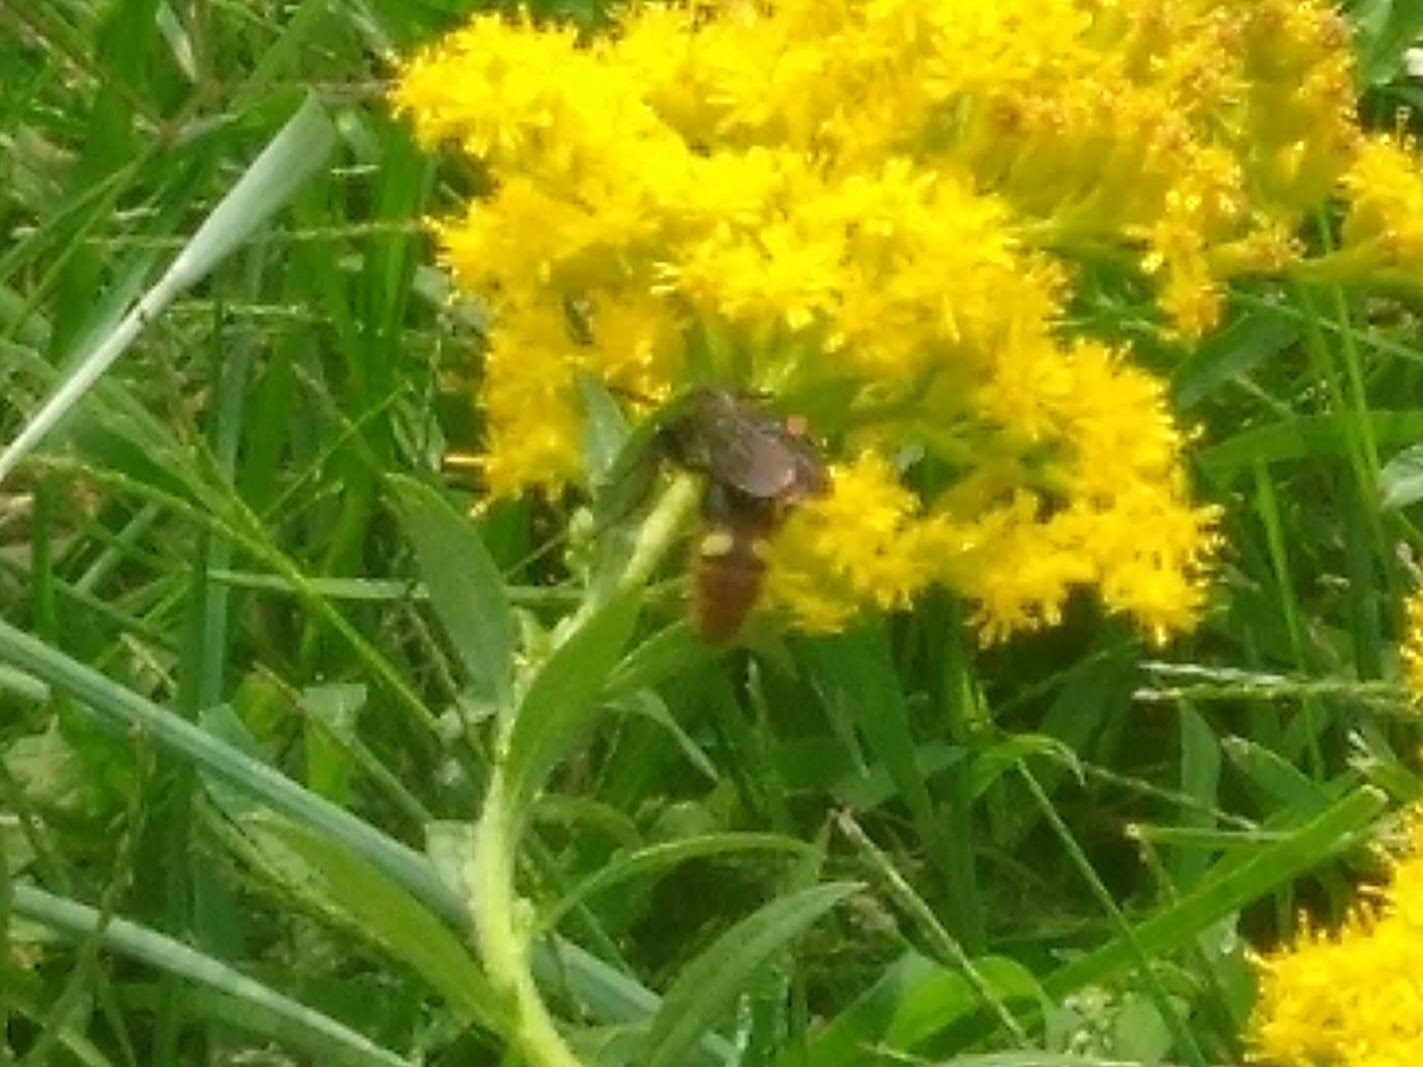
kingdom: Animalia
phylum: Arthropoda
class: Insecta
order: Hymenoptera
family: Scoliidae
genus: Scolia
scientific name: Scolia dubia
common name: Blue-winged scoliid wasp
